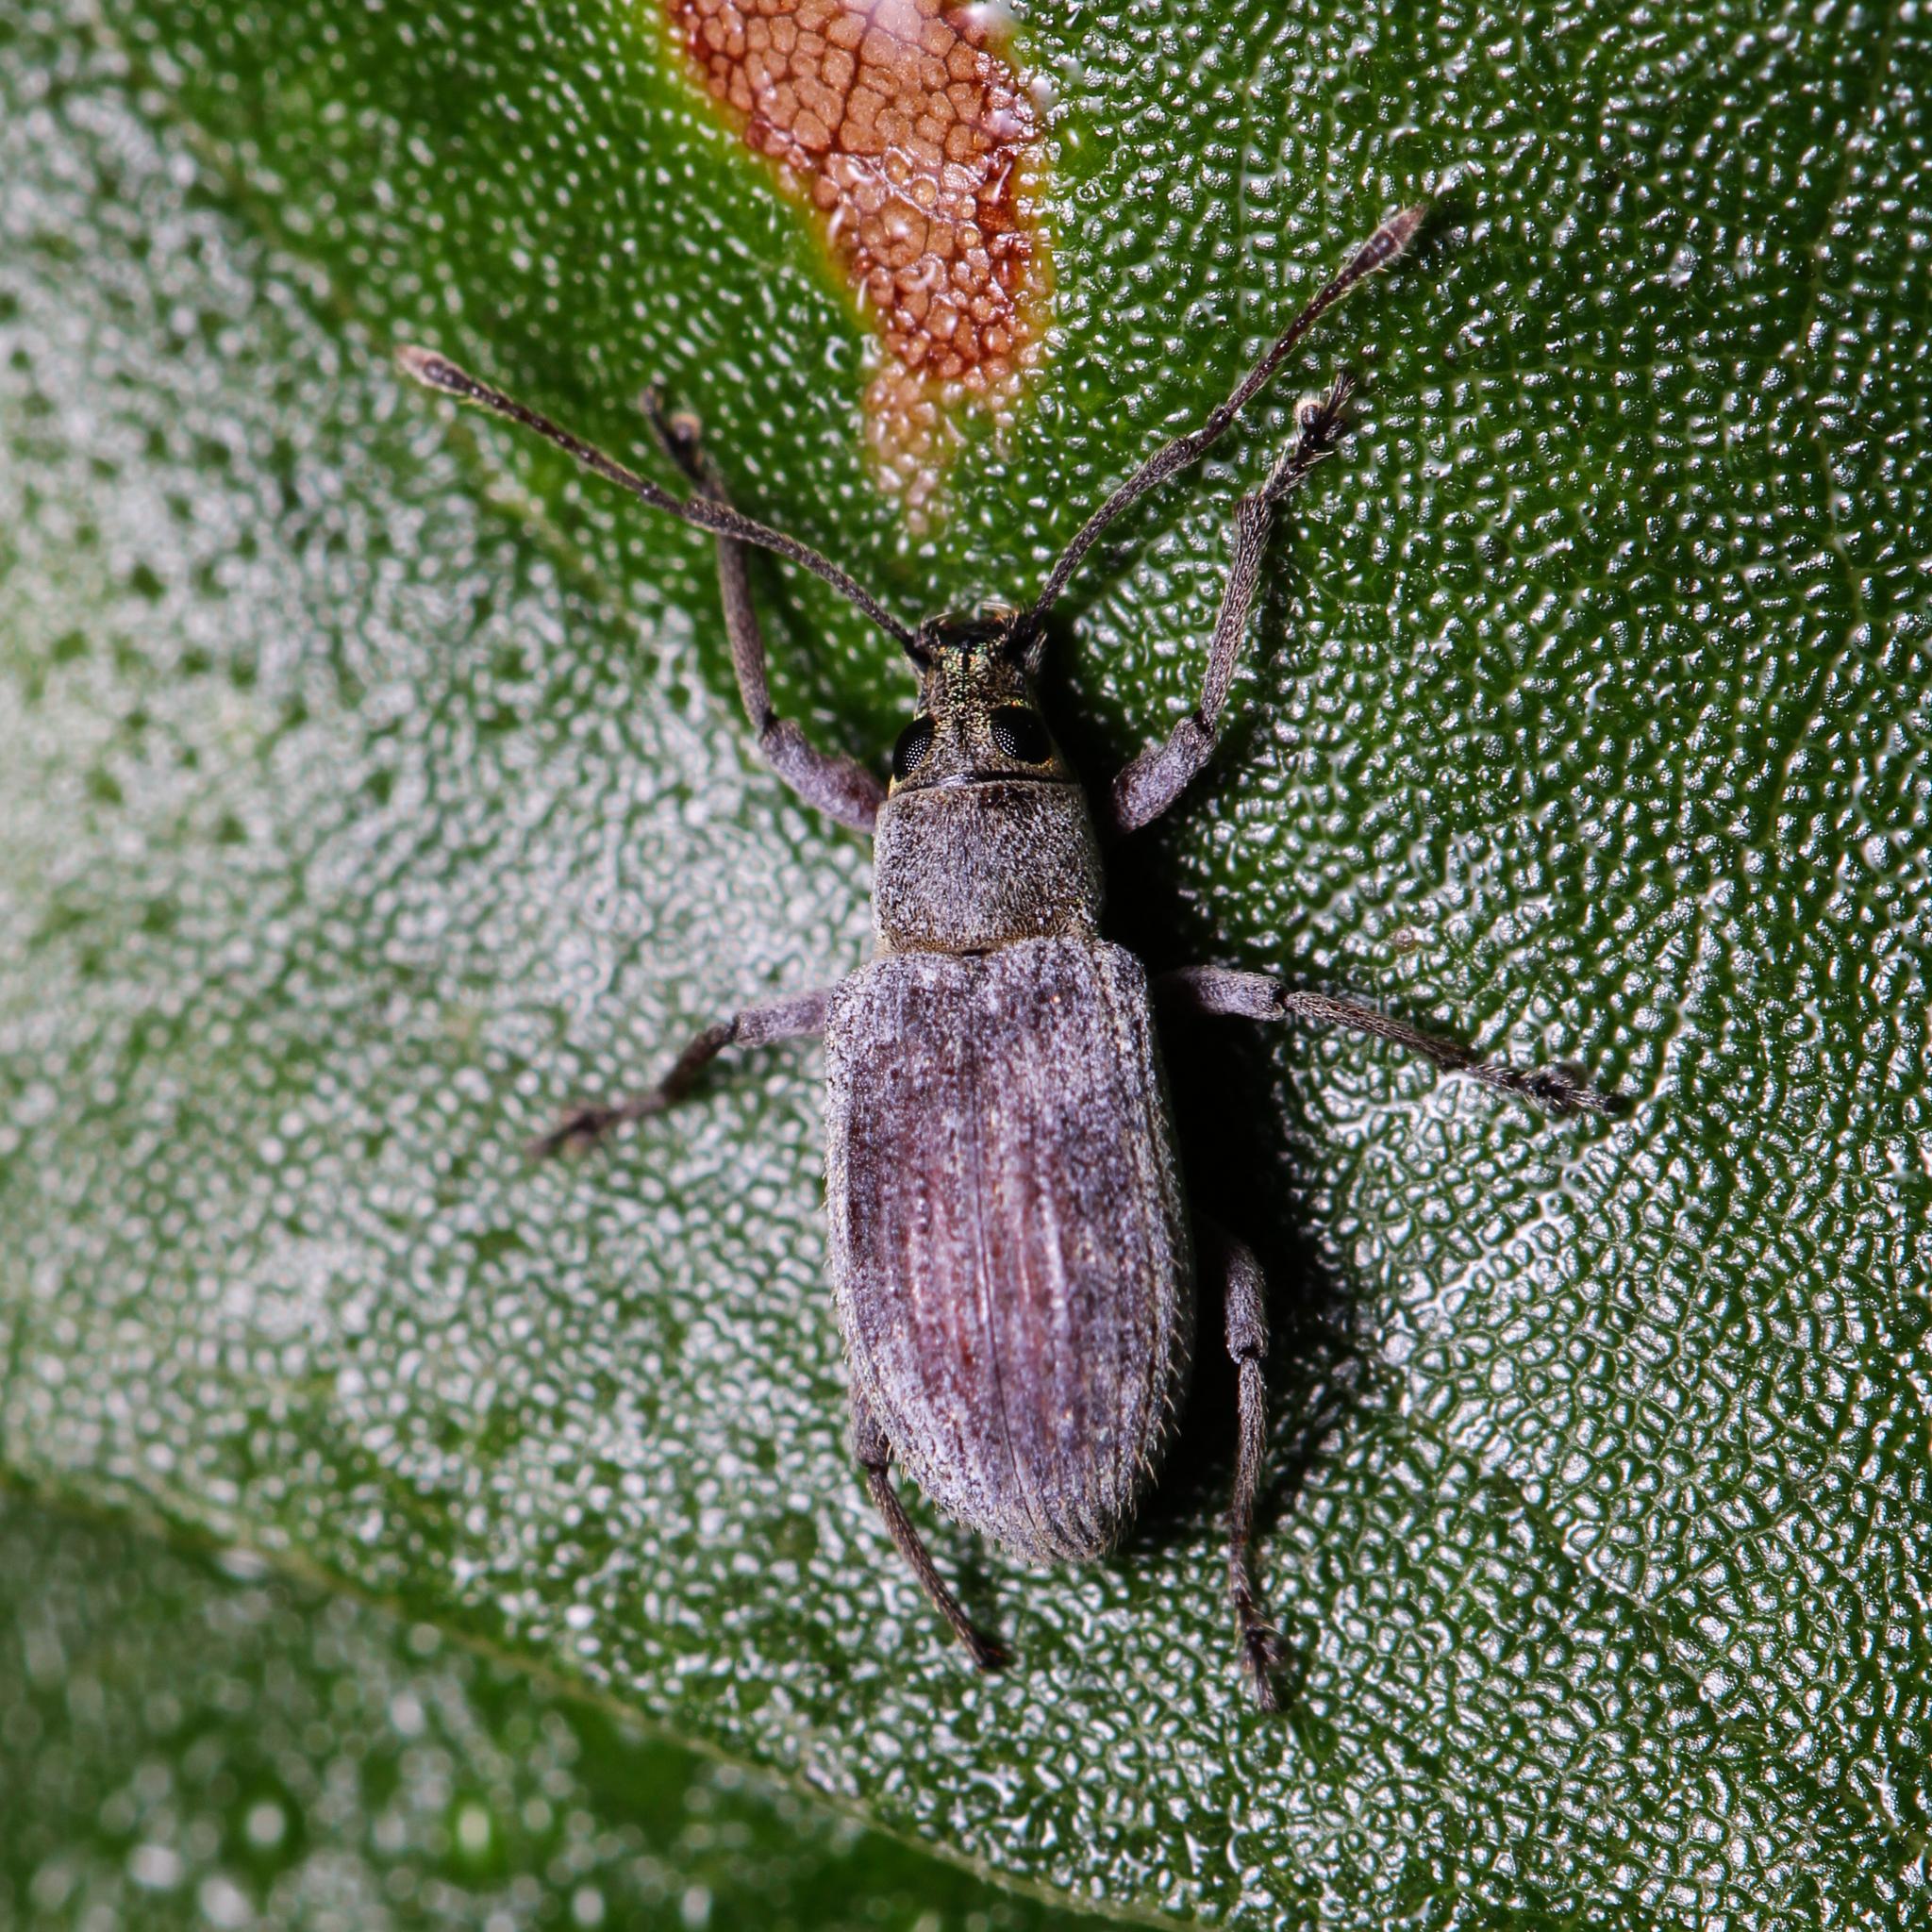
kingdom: Animalia
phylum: Arthropoda
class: Insecta
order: Coleoptera
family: Curculionidae
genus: Cyrtepistomus
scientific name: Cyrtepistomus castaneus
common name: Weevil
